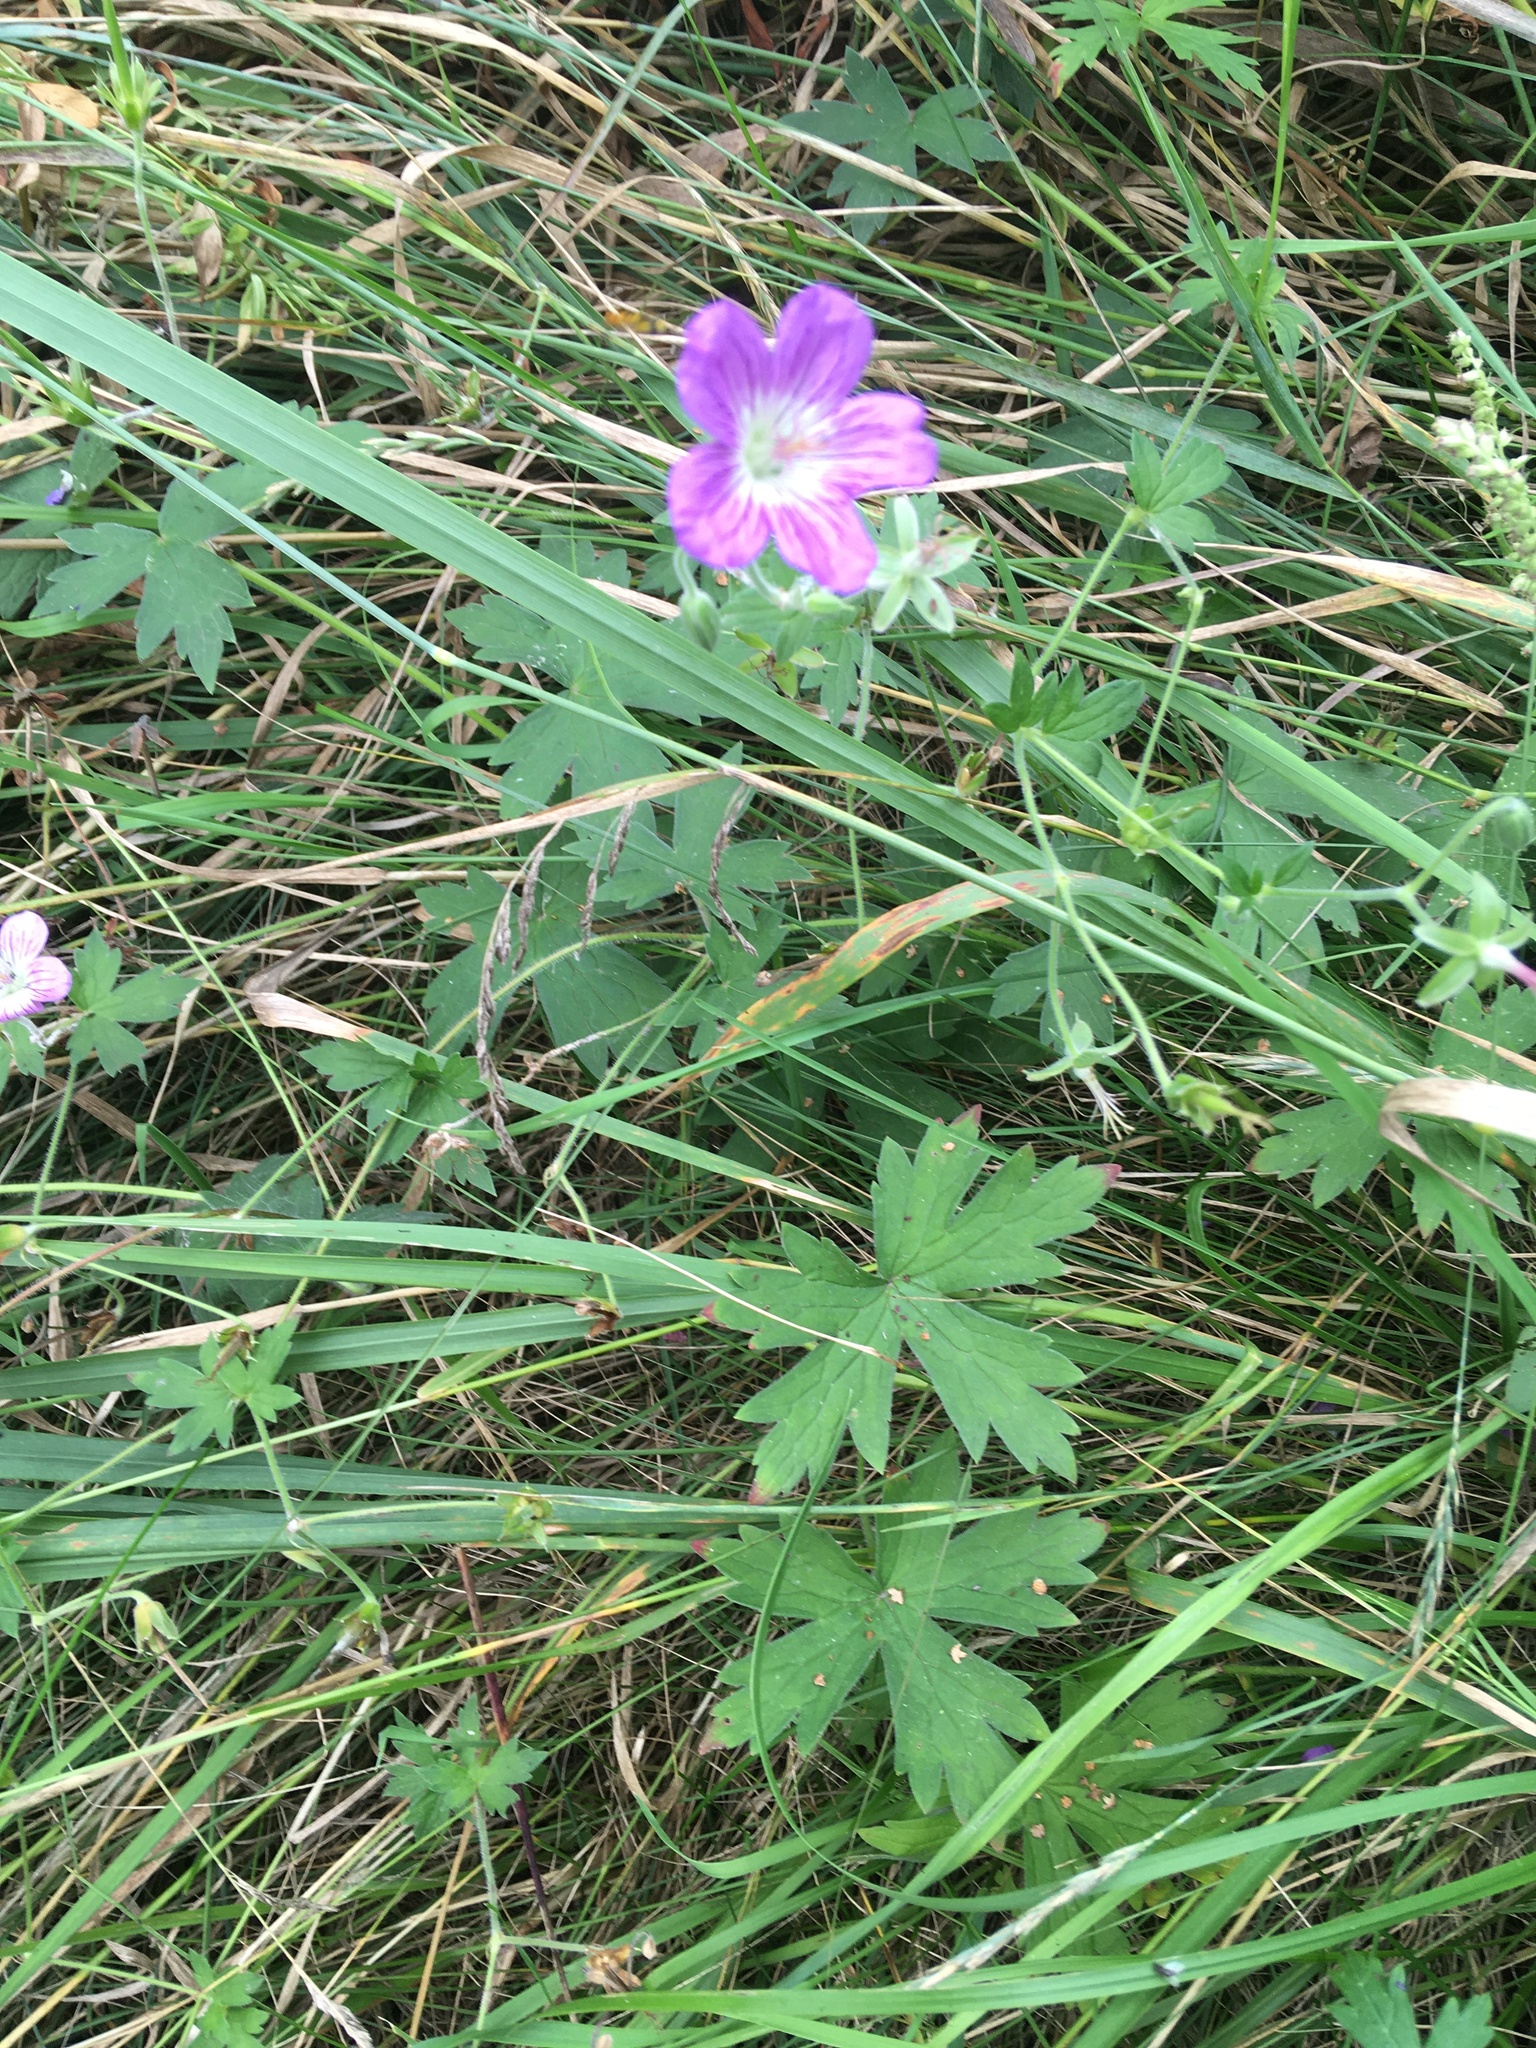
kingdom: Plantae
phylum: Tracheophyta
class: Magnoliopsida
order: Geraniales
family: Geraniaceae
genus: Geranium
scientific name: Geranium wlassovianum
